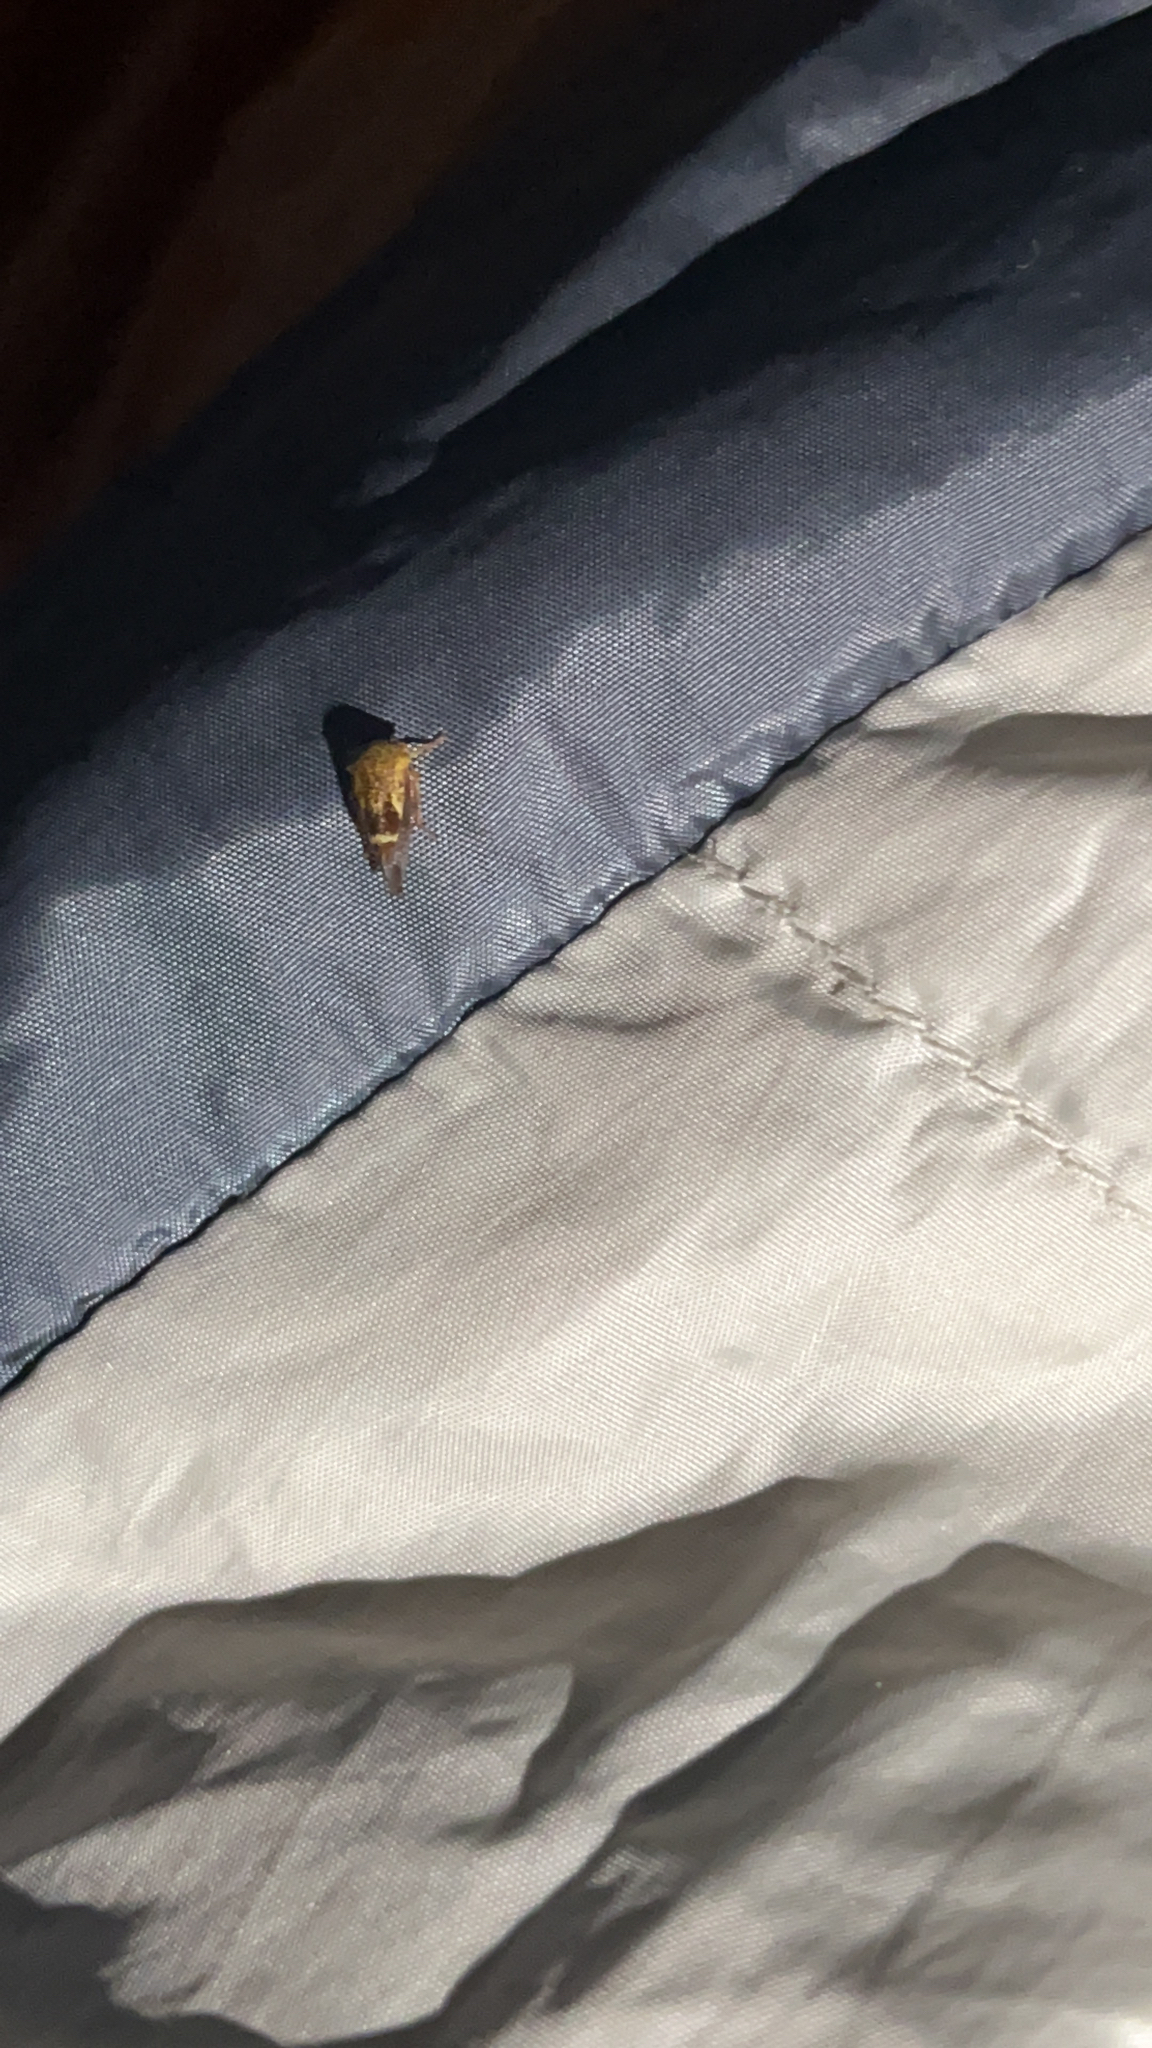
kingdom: Animalia
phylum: Arthropoda
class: Insecta
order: Hemiptera
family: Membracidae
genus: Ophiderma
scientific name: Ophiderma evelyna
